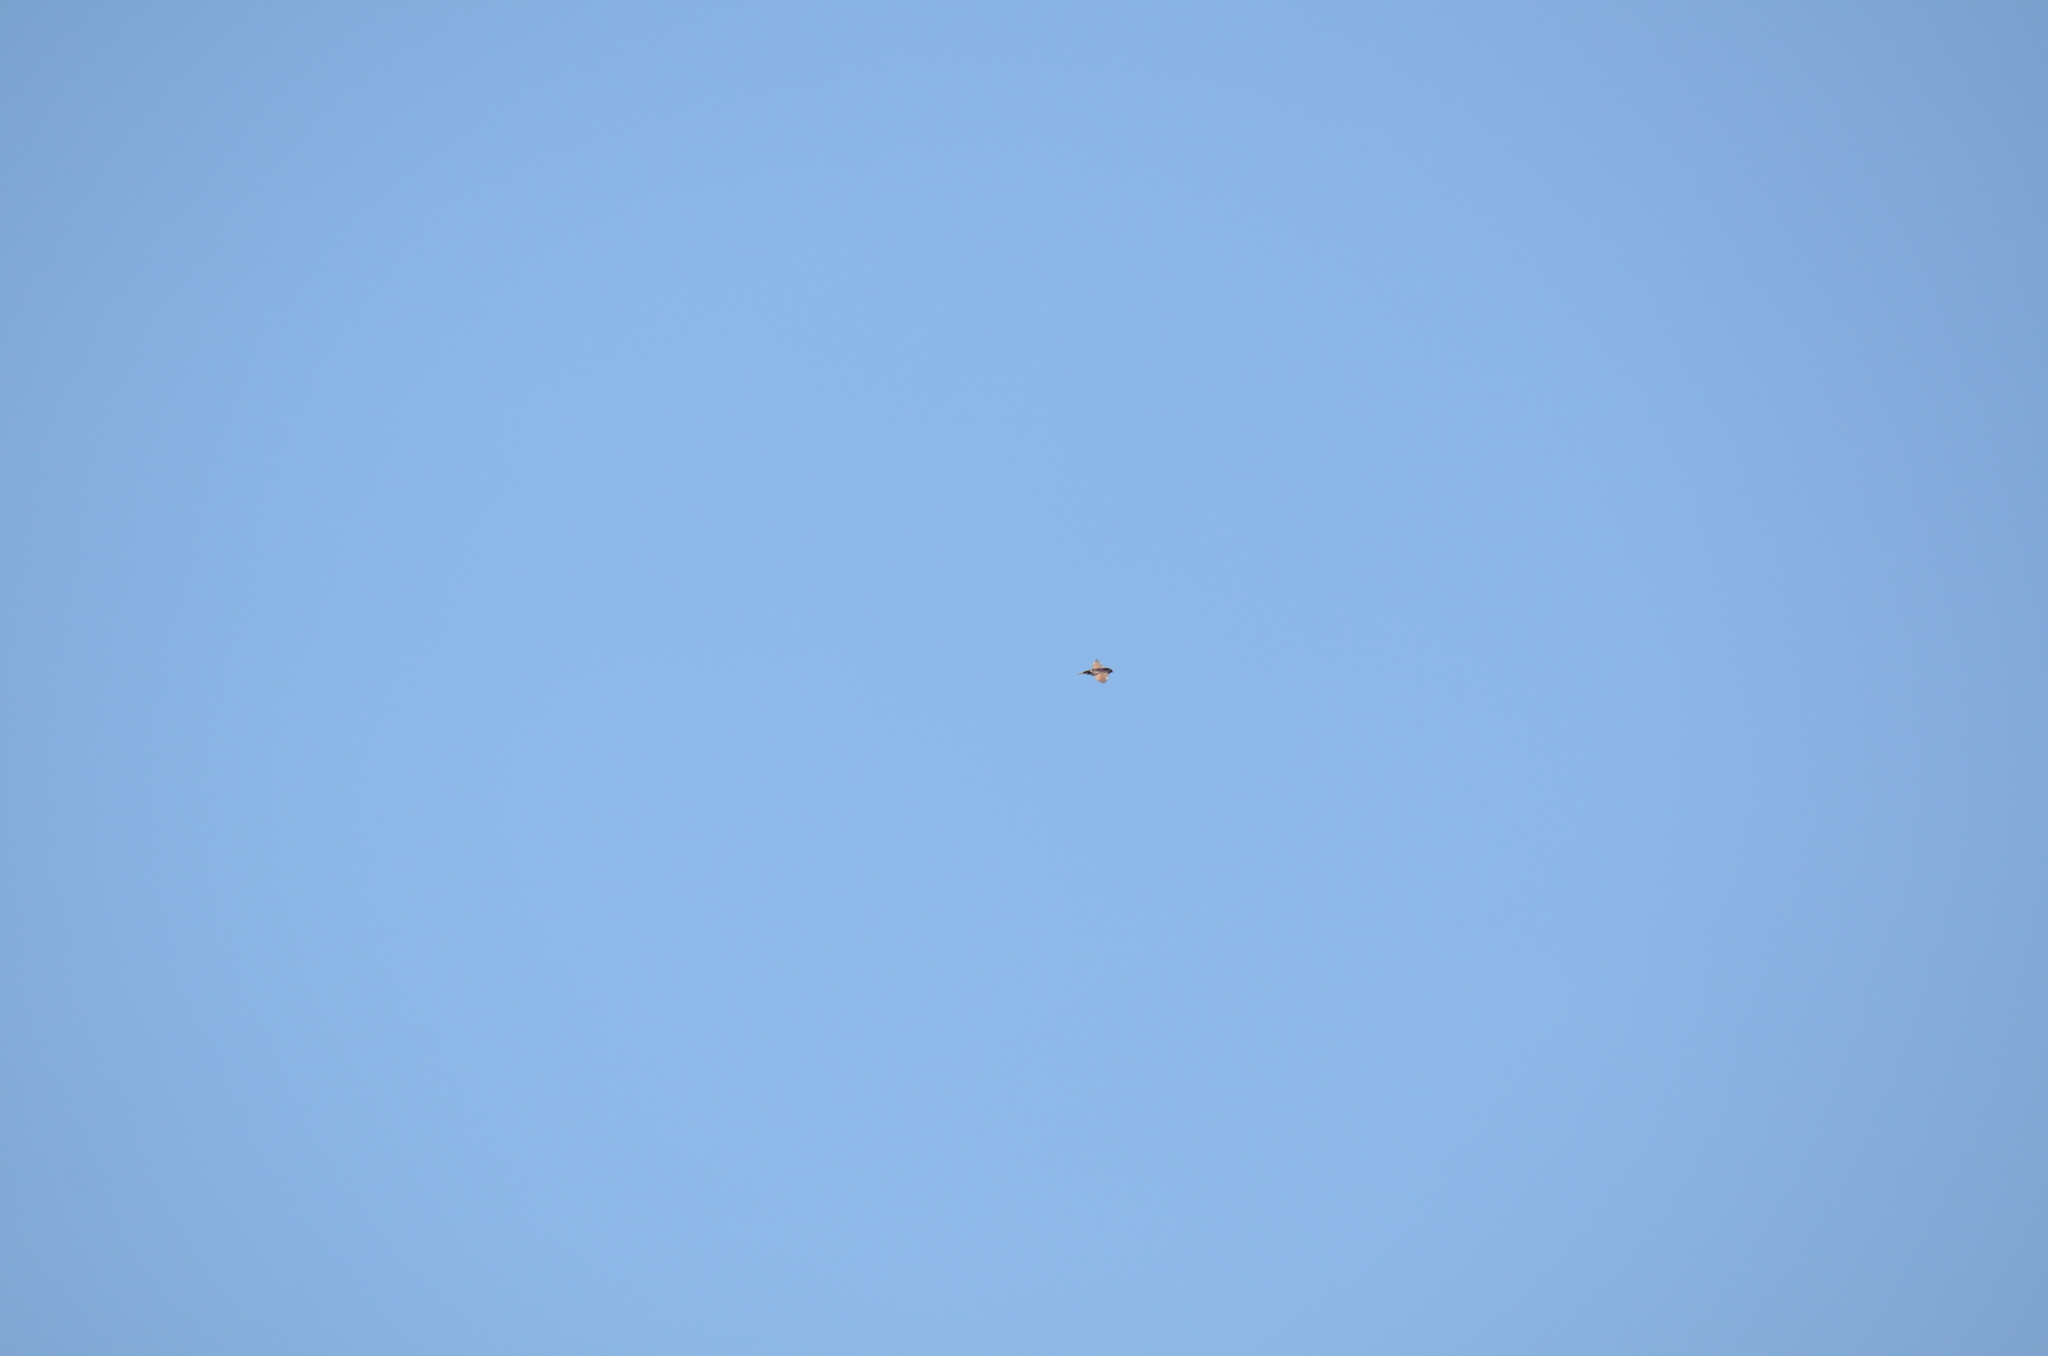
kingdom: Animalia
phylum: Chordata
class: Aves
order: Passeriformes
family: Hirundinidae
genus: Tachycineta
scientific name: Tachycineta thalassina
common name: Violet-green swallow
